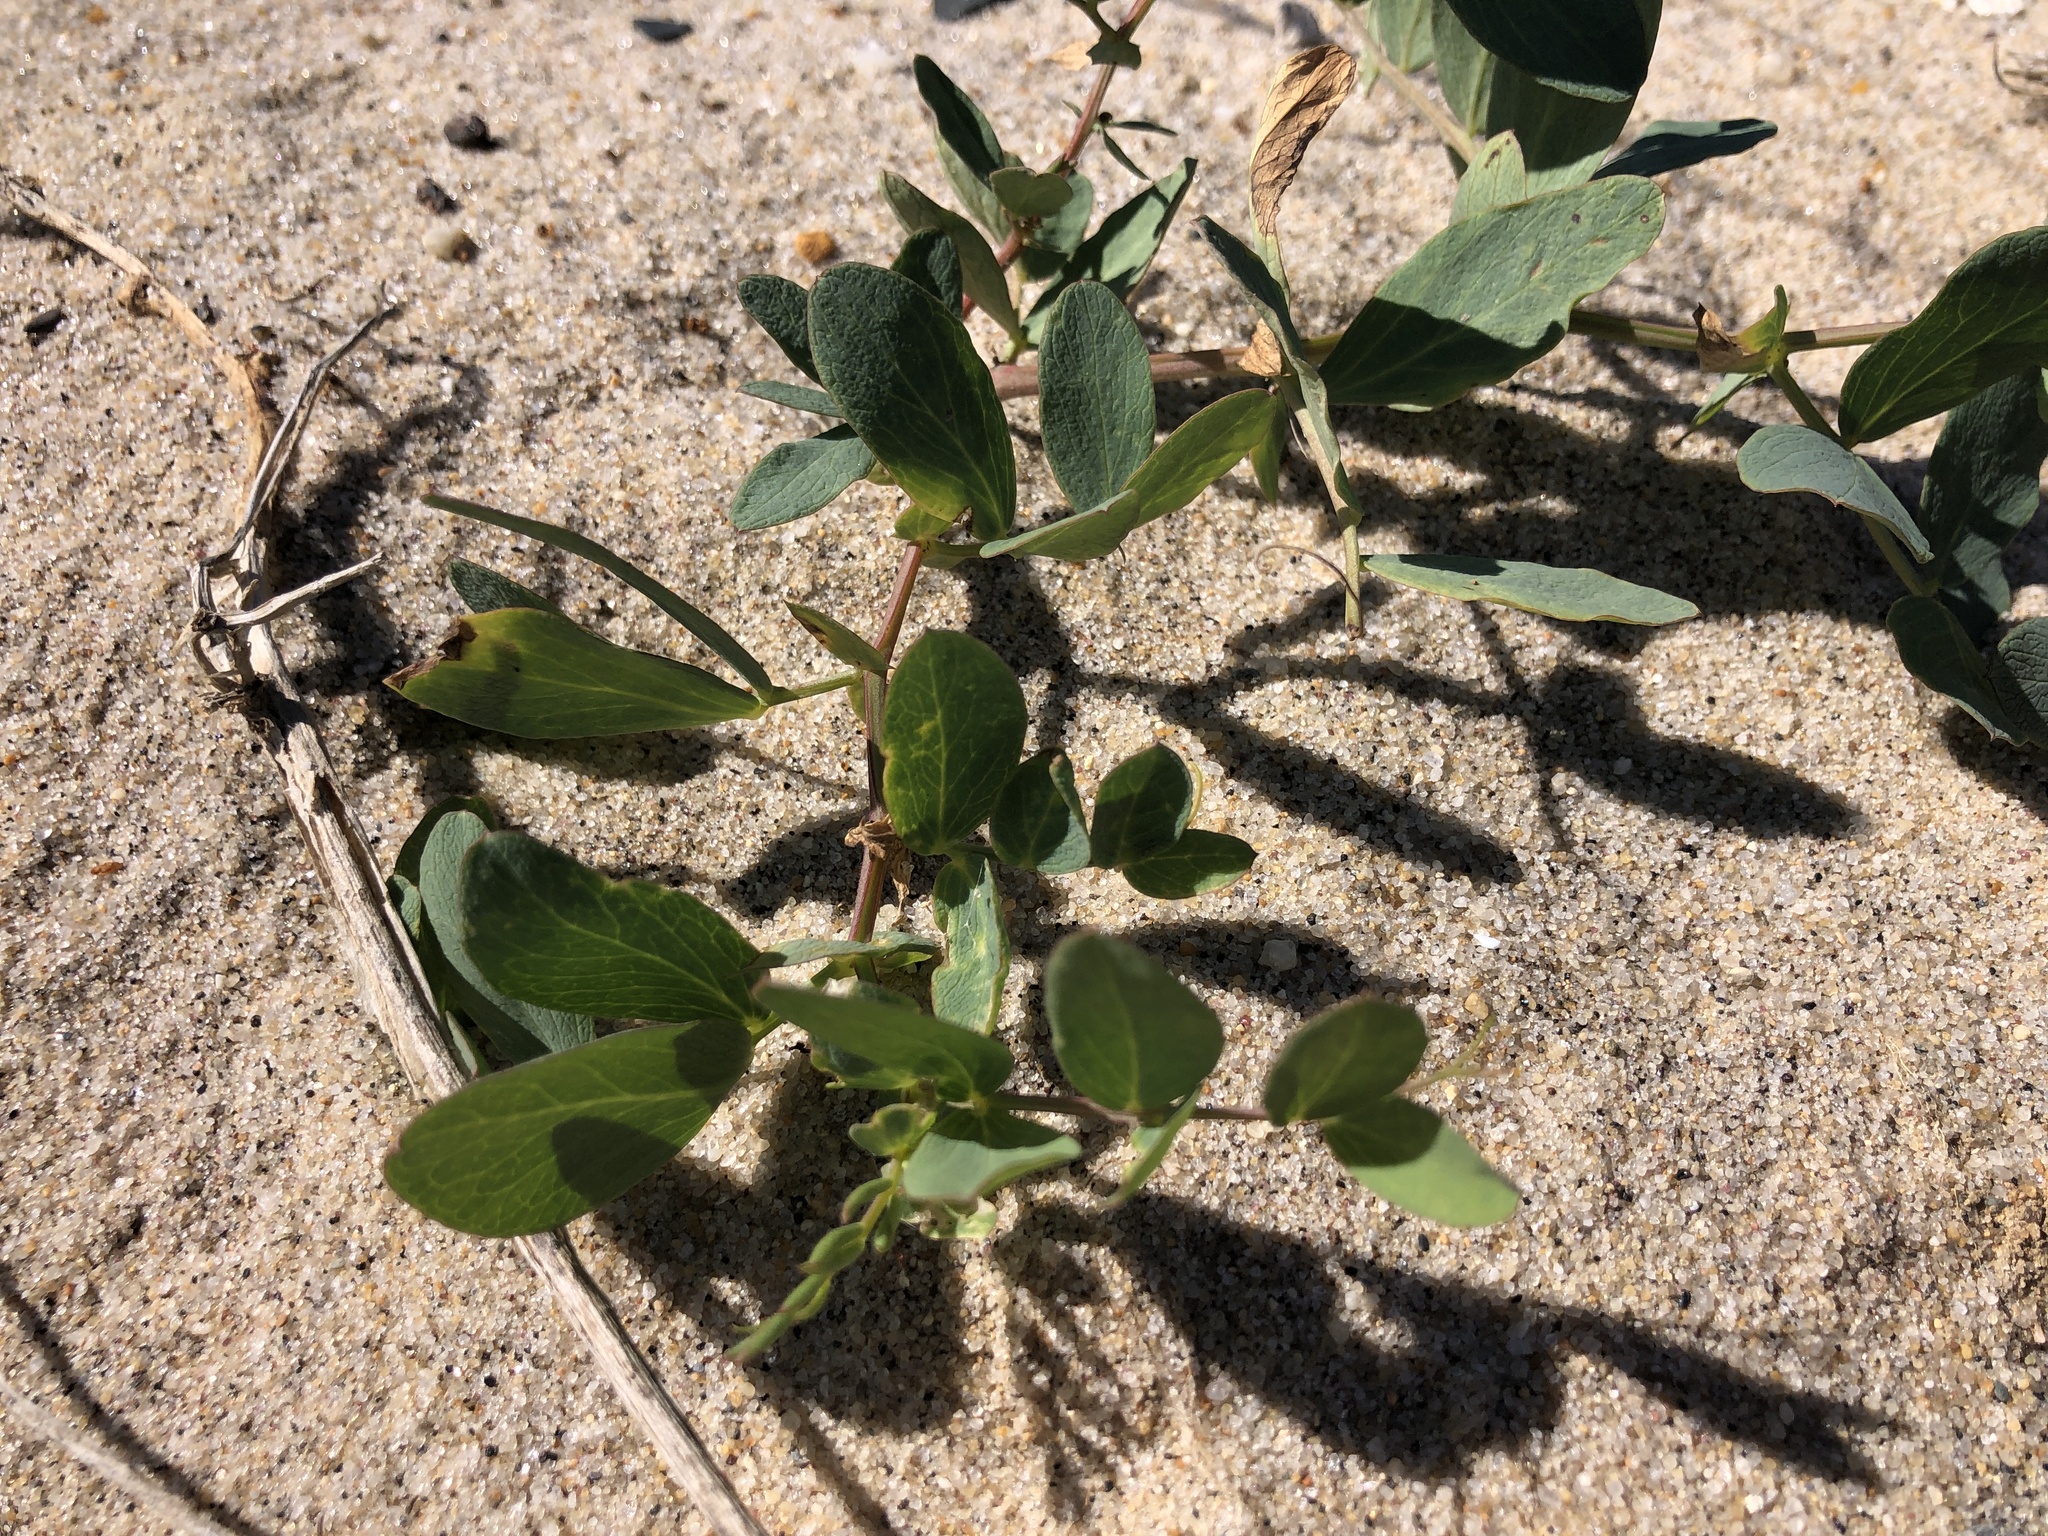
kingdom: Plantae
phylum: Tracheophyta
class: Magnoliopsida
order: Fabales
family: Fabaceae
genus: Lathyrus
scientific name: Lathyrus japonicus
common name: Sea pea
